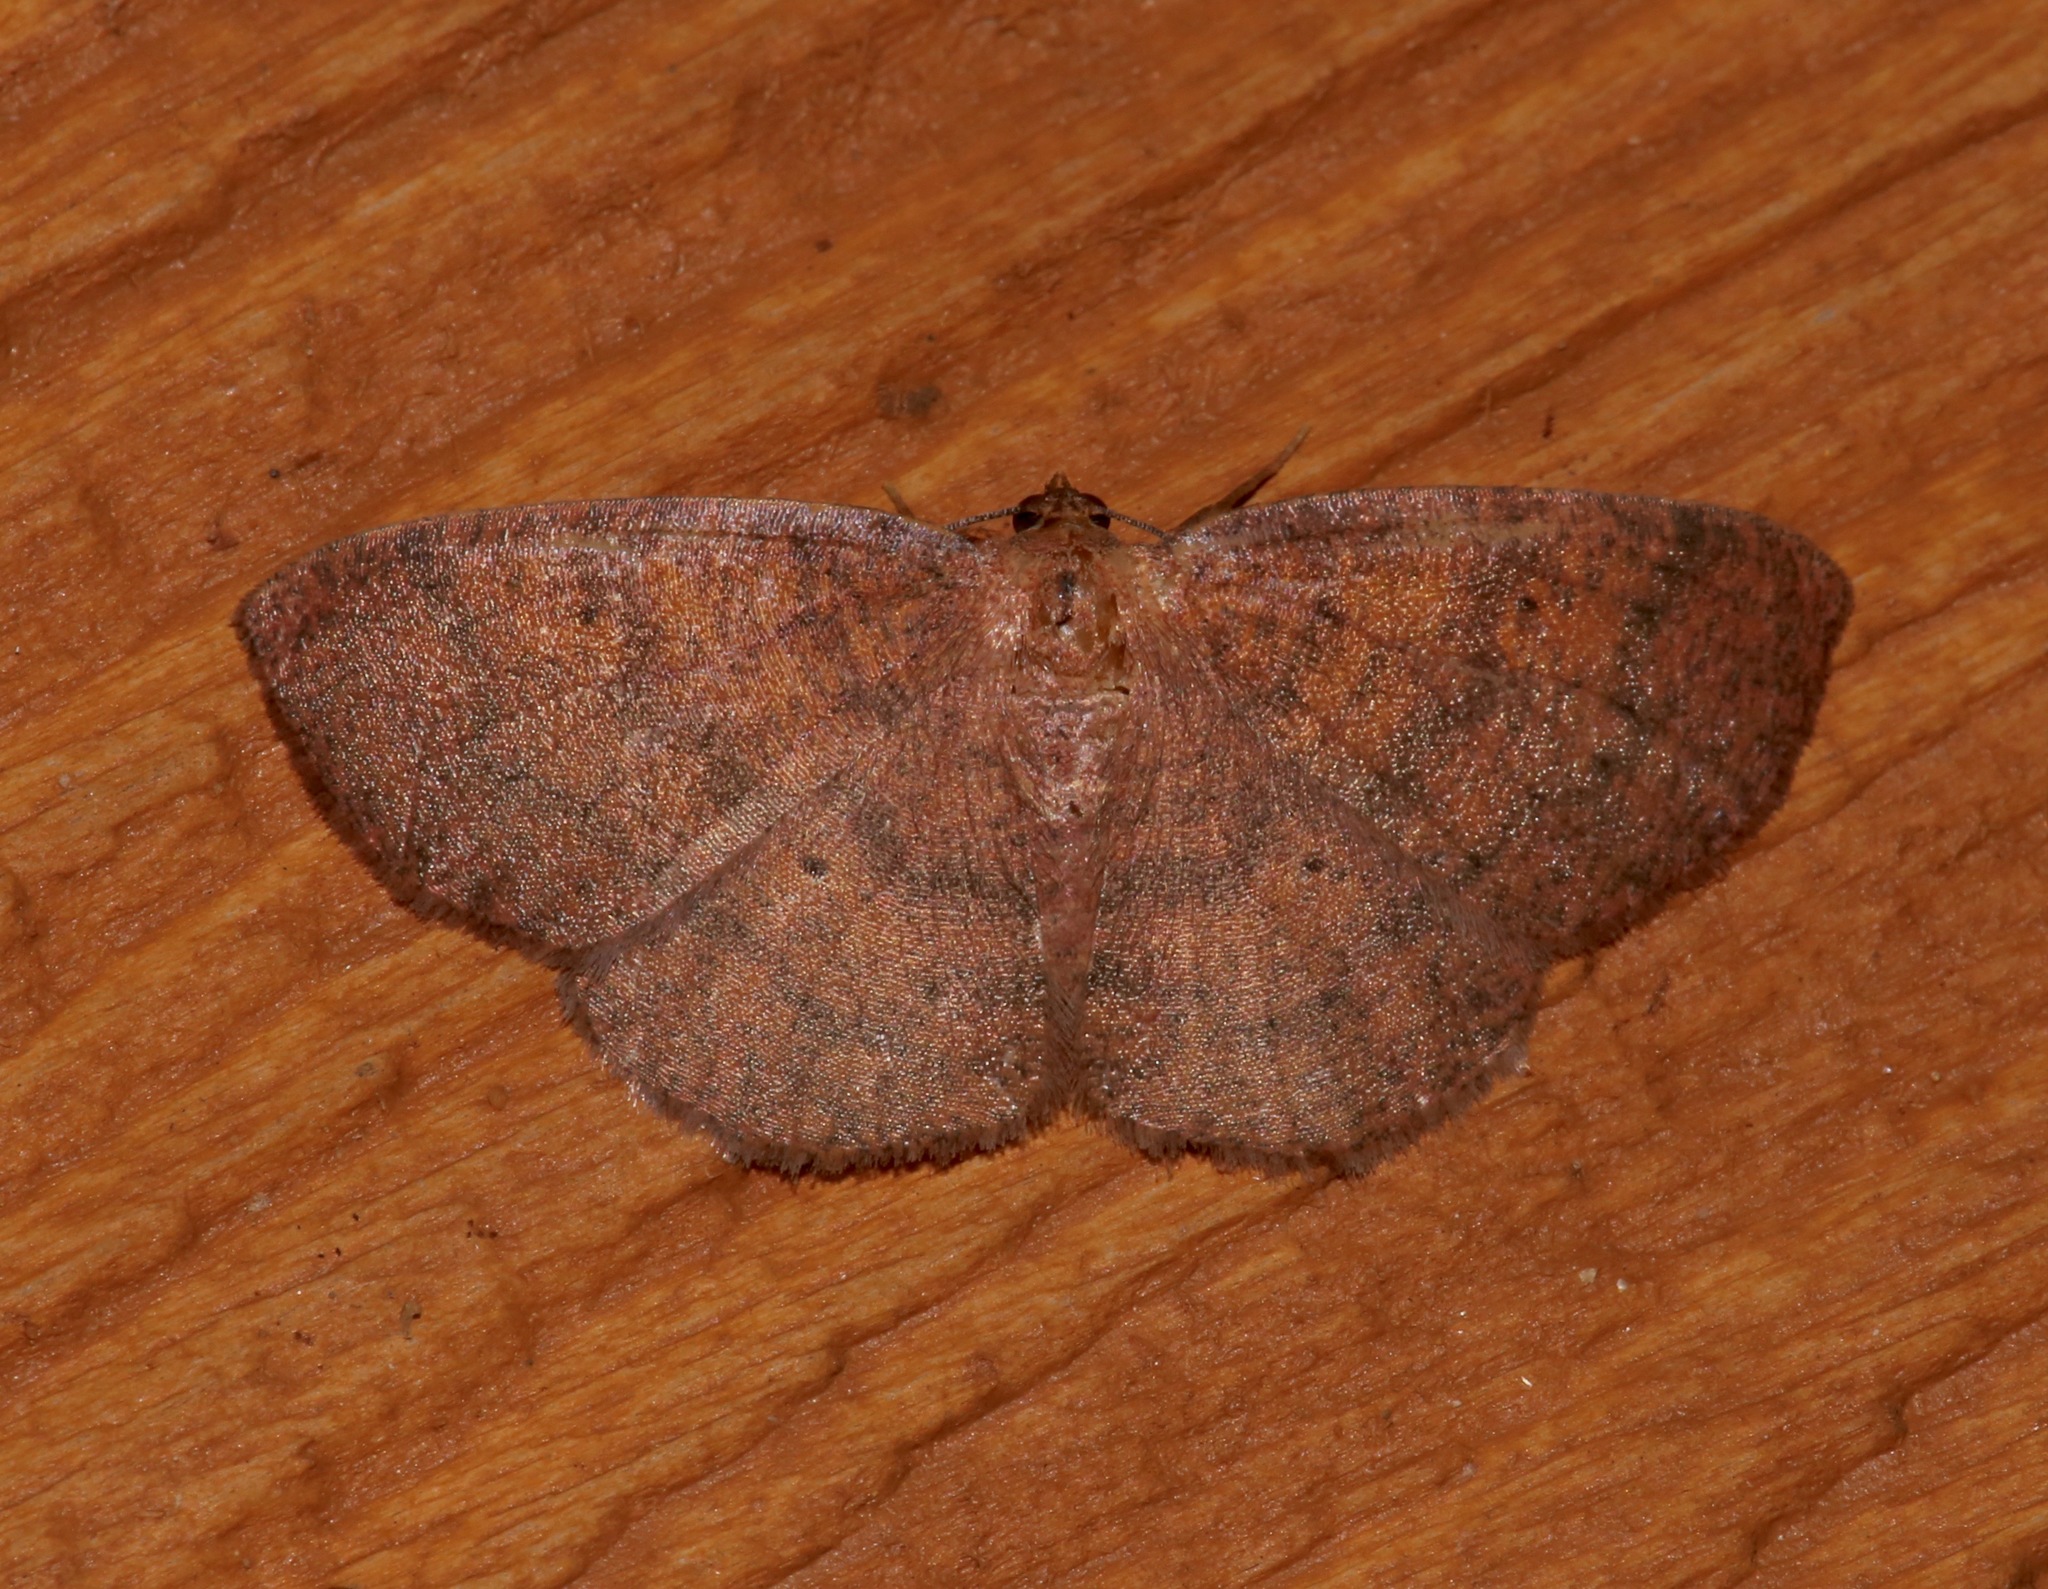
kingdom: Animalia
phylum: Arthropoda
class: Insecta
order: Lepidoptera
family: Geometridae
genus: Ilexia
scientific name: Ilexia intractata
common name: Black-dotted ruddy moth
